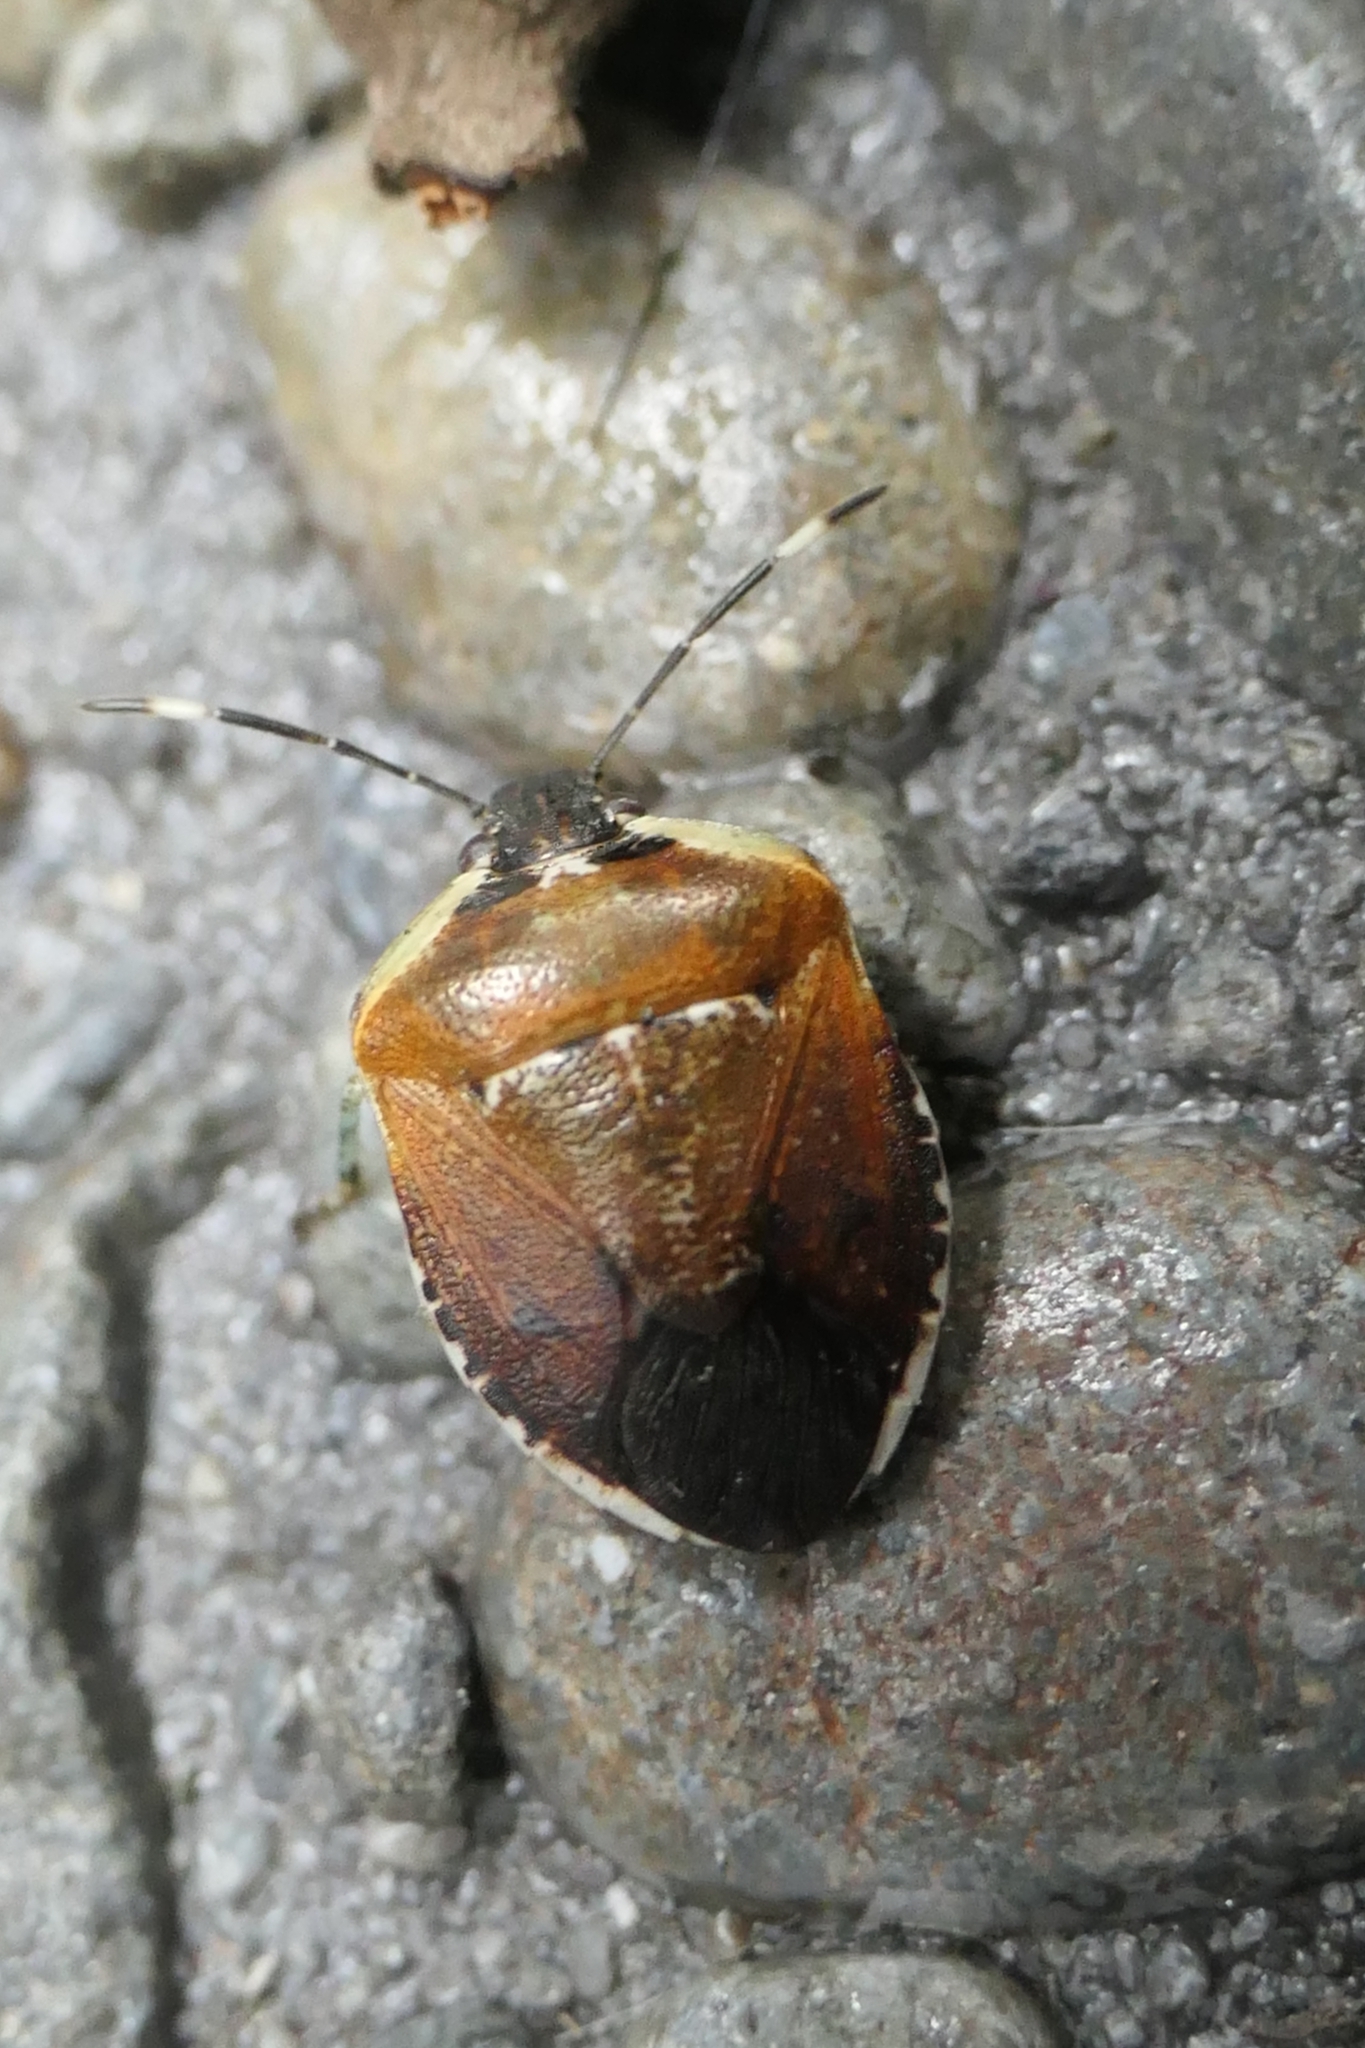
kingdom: Animalia
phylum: Arthropoda
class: Insecta
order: Hemiptera
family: Pentatomidae
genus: Monteithiella
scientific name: Monteithiella
